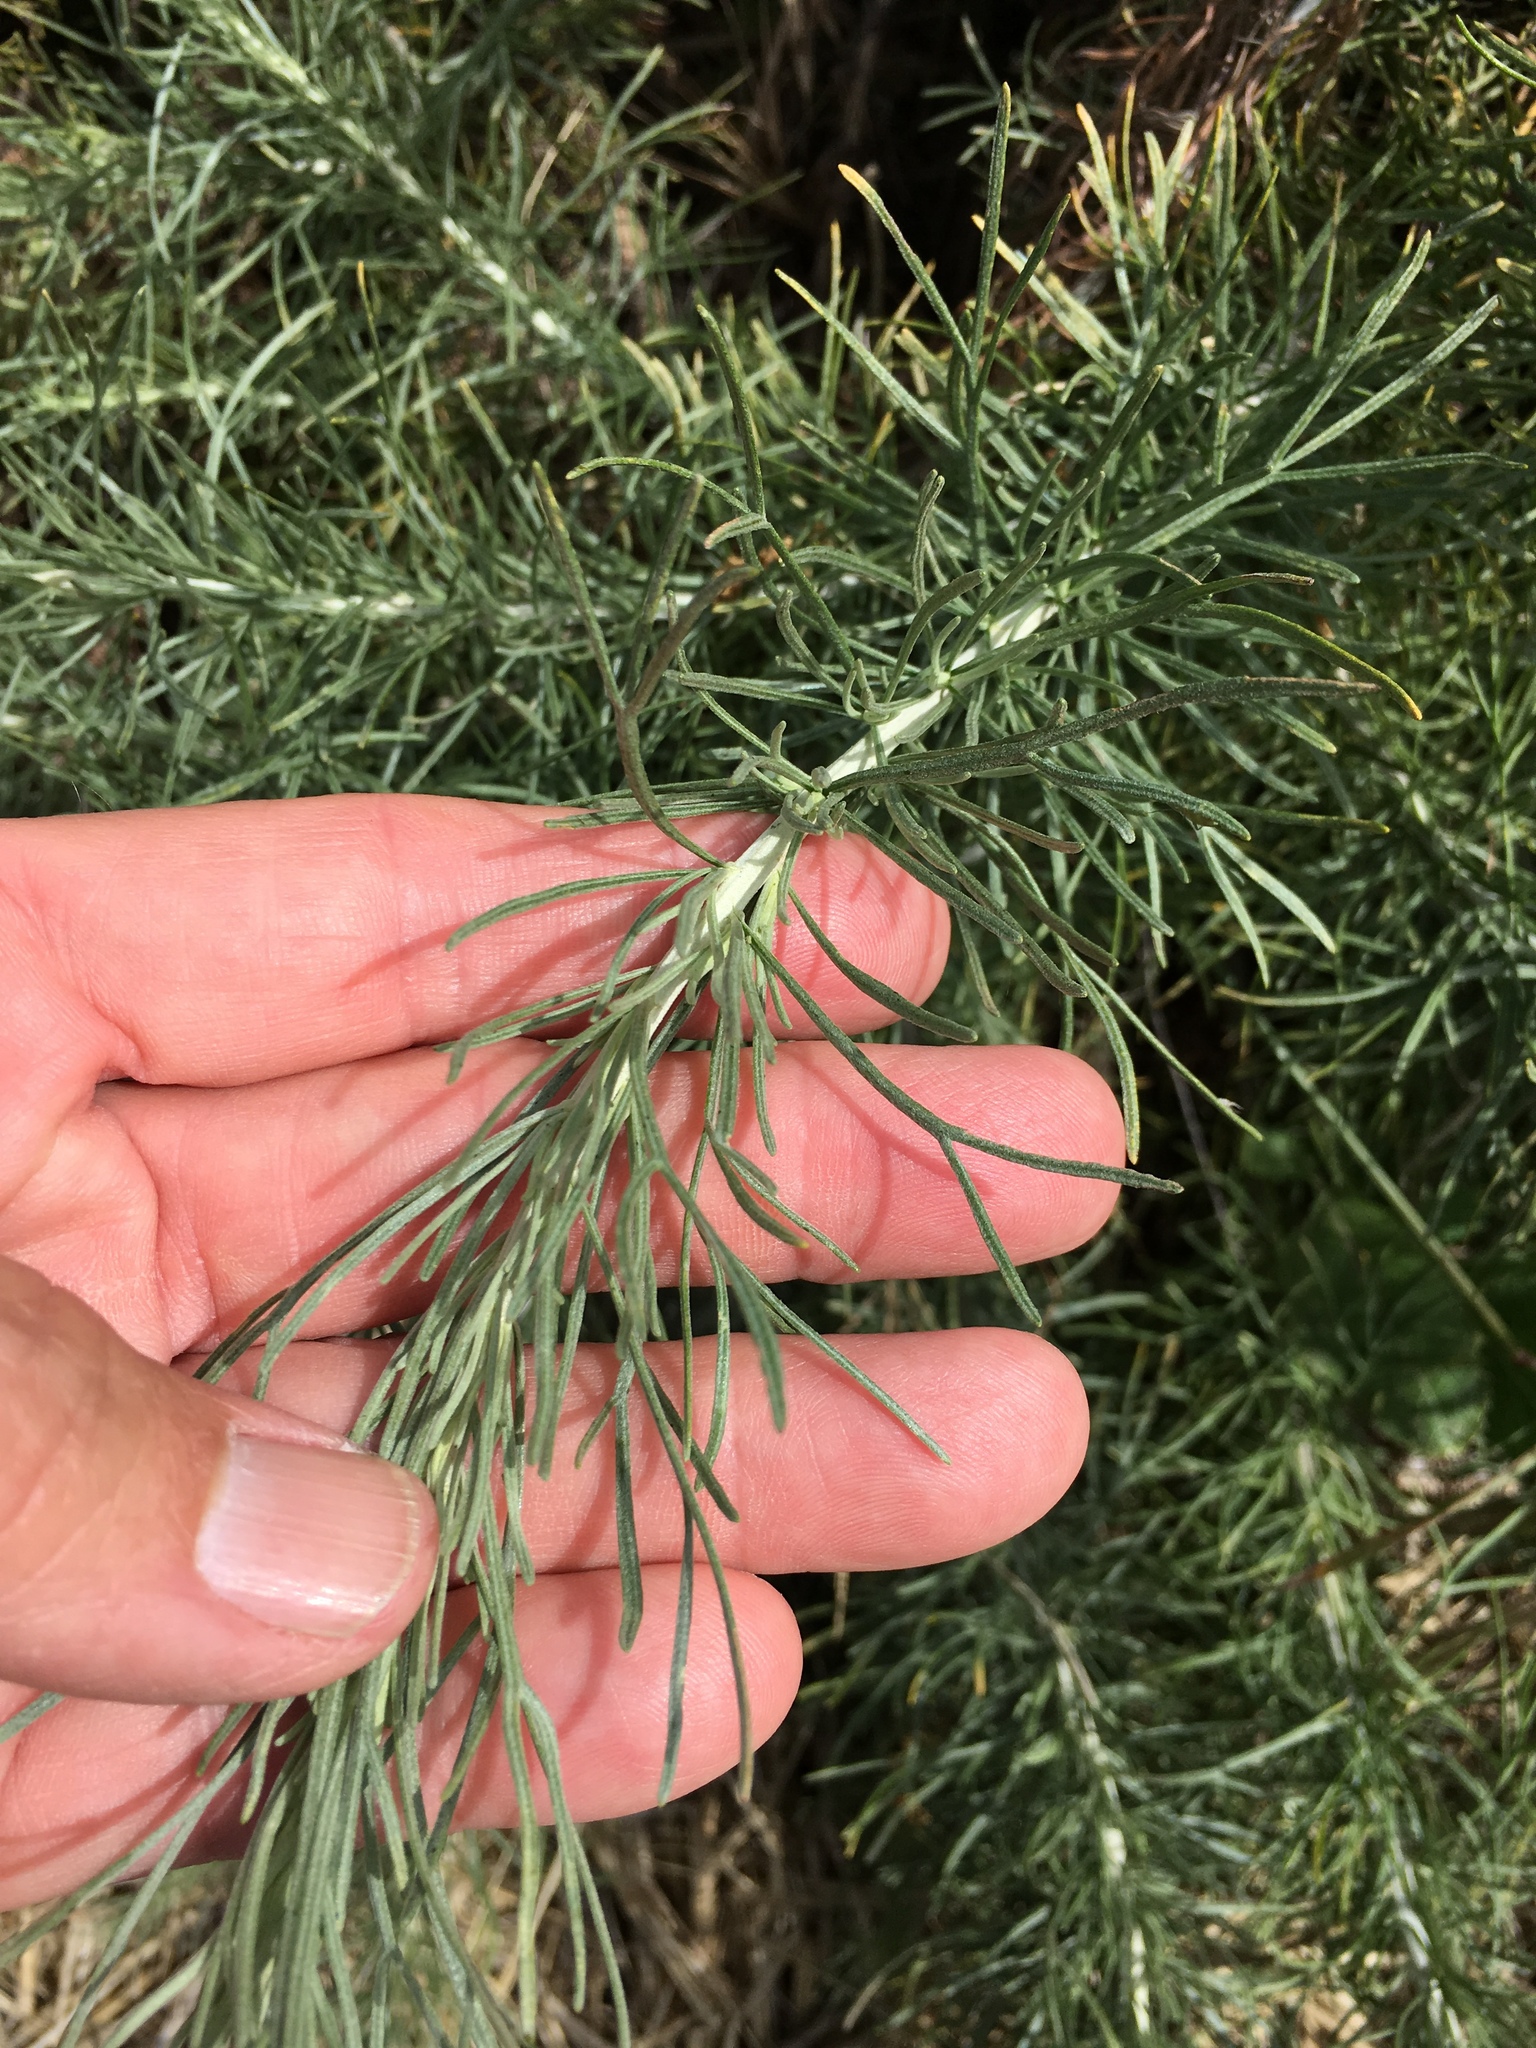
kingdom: Plantae
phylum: Tracheophyta
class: Magnoliopsida
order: Asterales
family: Asteraceae
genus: Artemisia
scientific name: Artemisia californica
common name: California sagebrush
